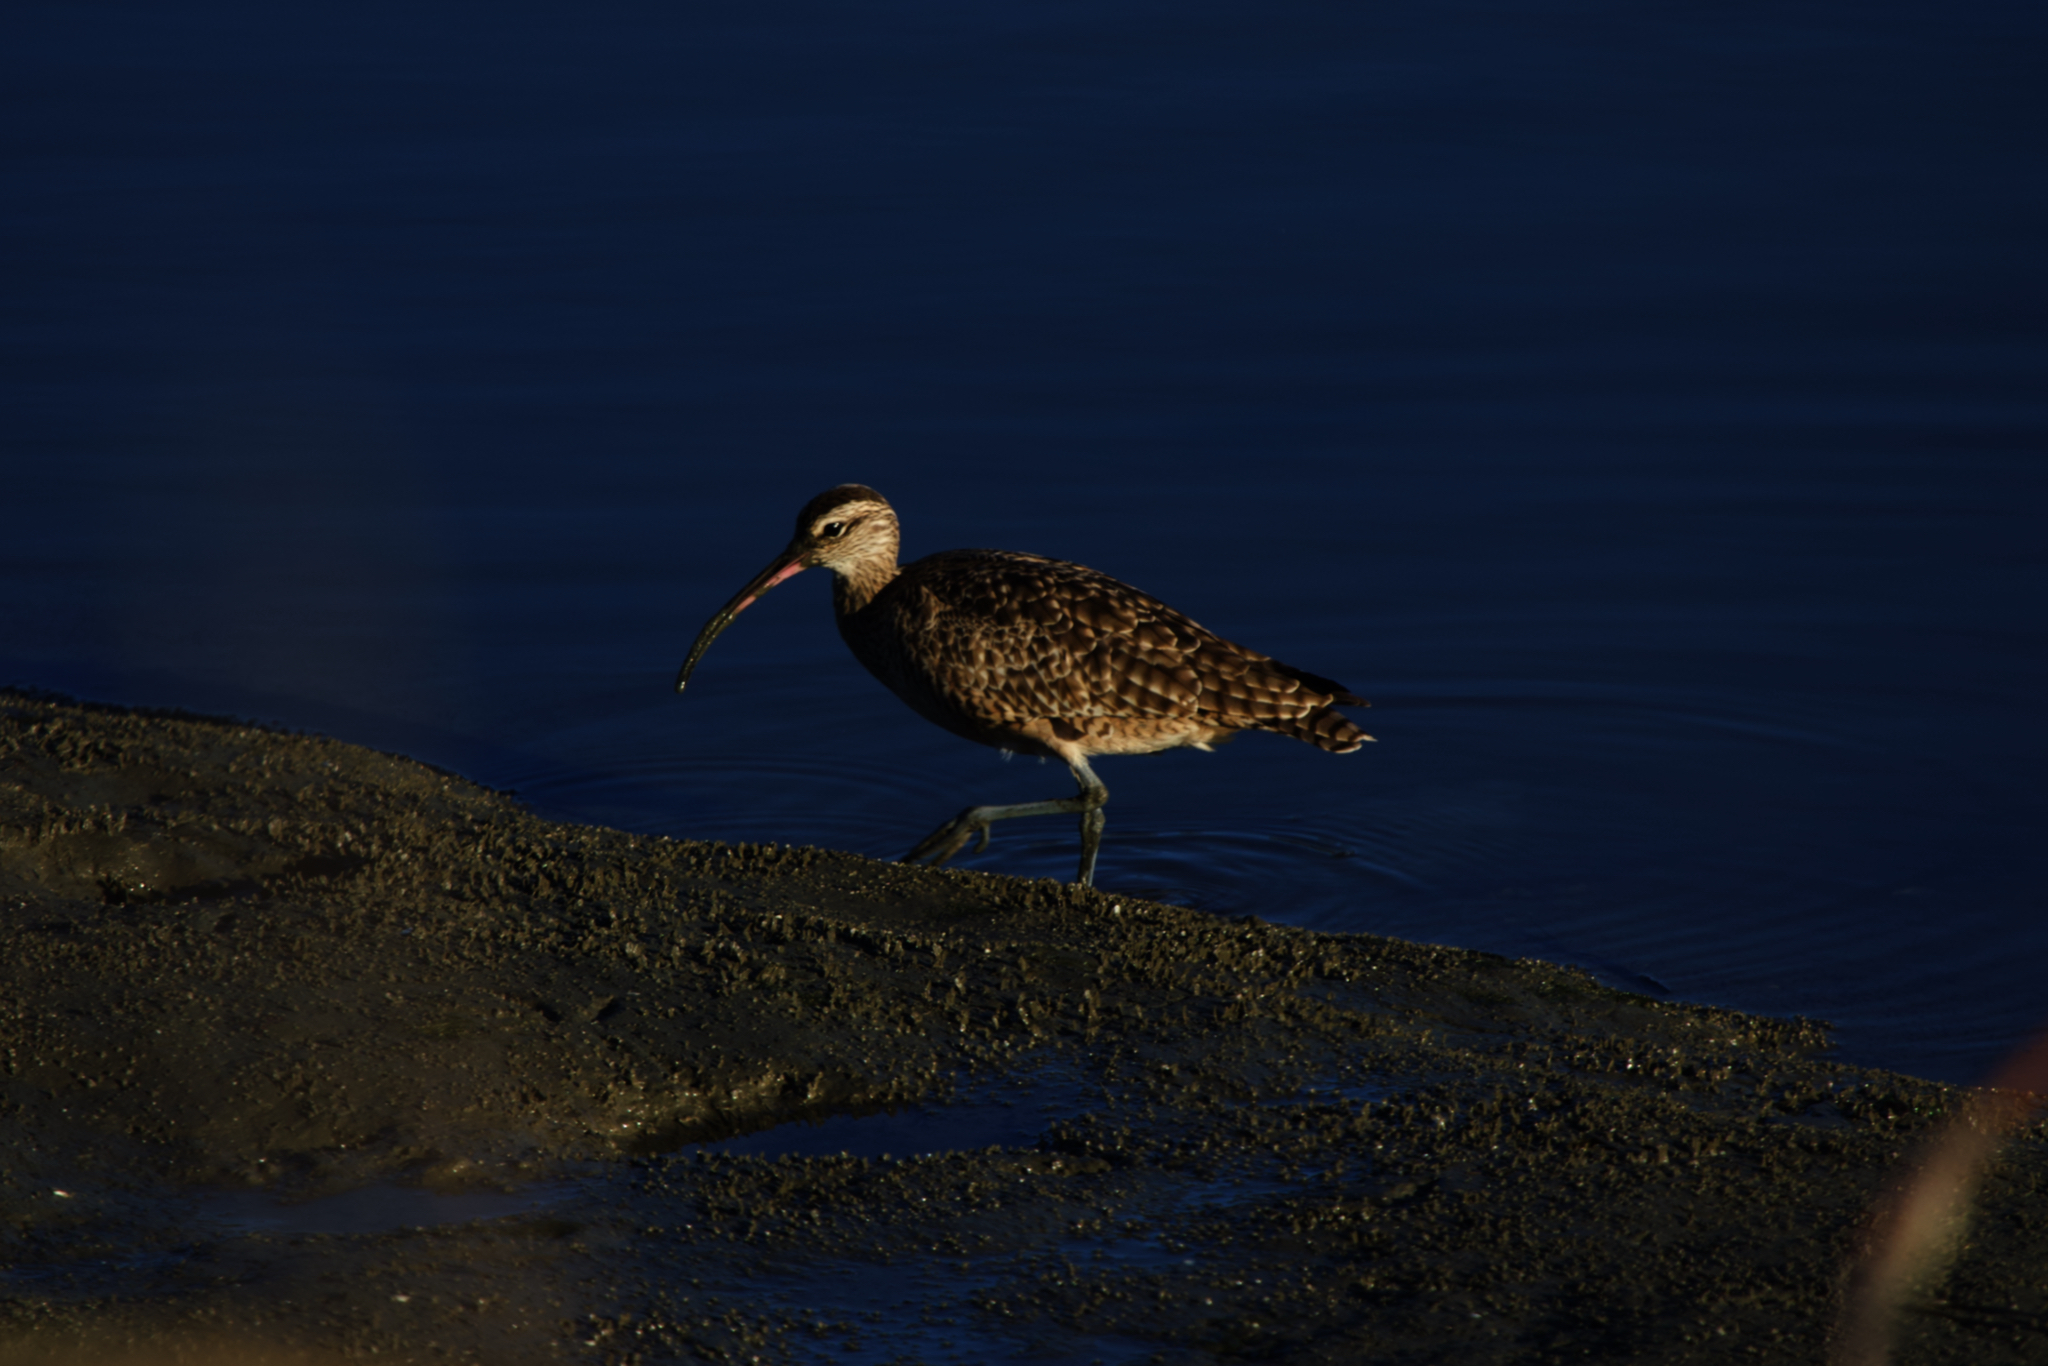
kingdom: Animalia
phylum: Chordata
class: Aves
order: Charadriiformes
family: Scolopacidae
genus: Numenius
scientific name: Numenius phaeopus
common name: Whimbrel
